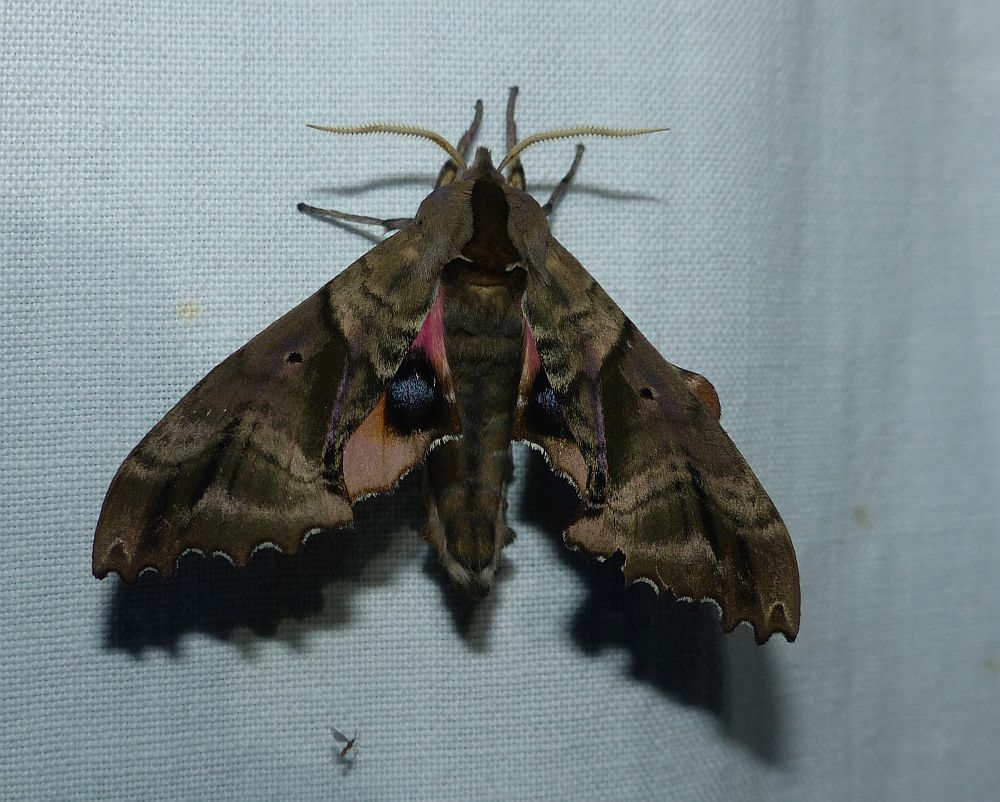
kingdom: Animalia
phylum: Arthropoda
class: Insecta
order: Lepidoptera
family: Sphingidae
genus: Paonias
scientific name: Paonias excaecata
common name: Blind-eyed sphinx
